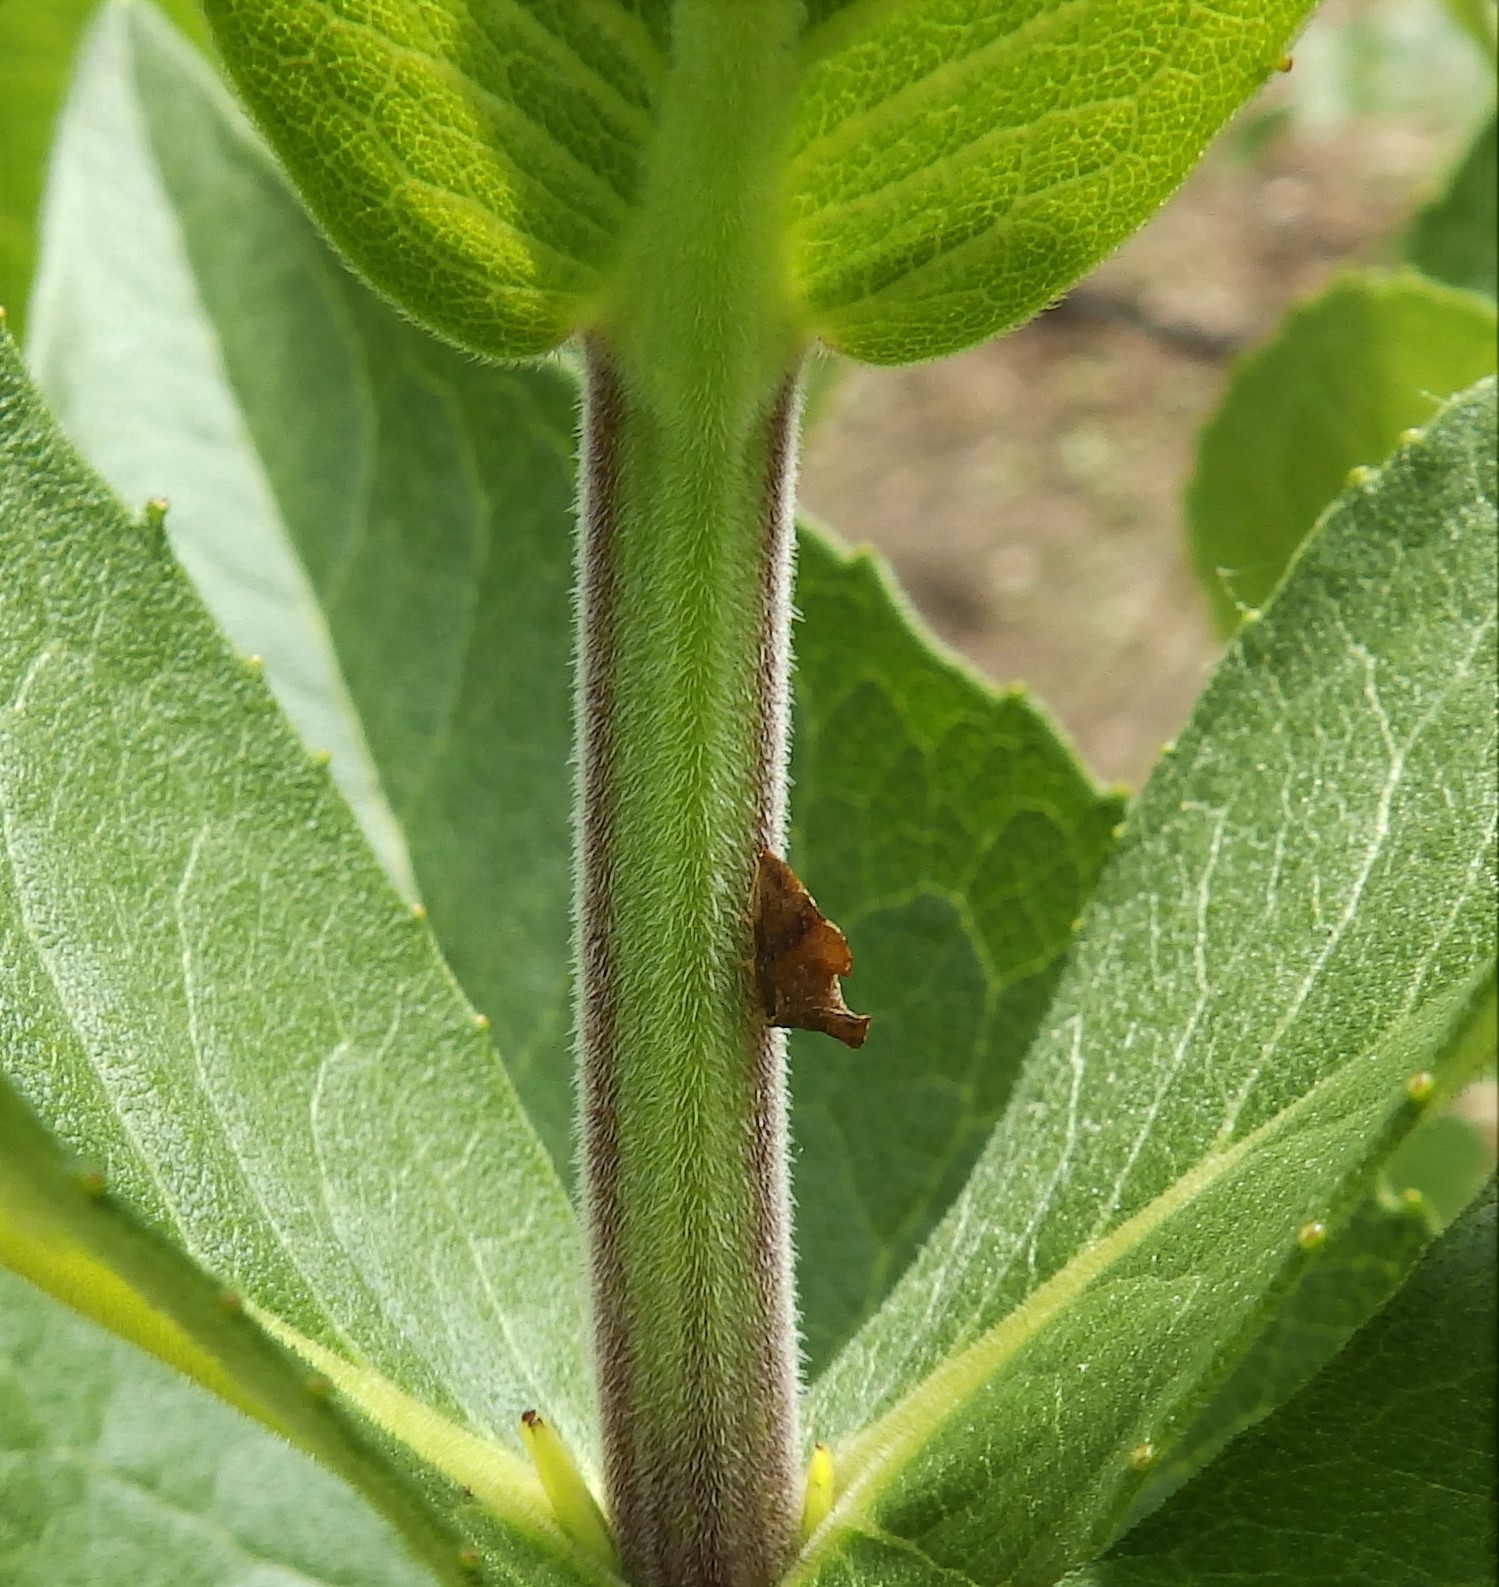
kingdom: Animalia
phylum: Arthropoda
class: Insecta
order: Hemiptera
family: Membracidae
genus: Entylia
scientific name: Entylia carinata
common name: Keeled treehopper
